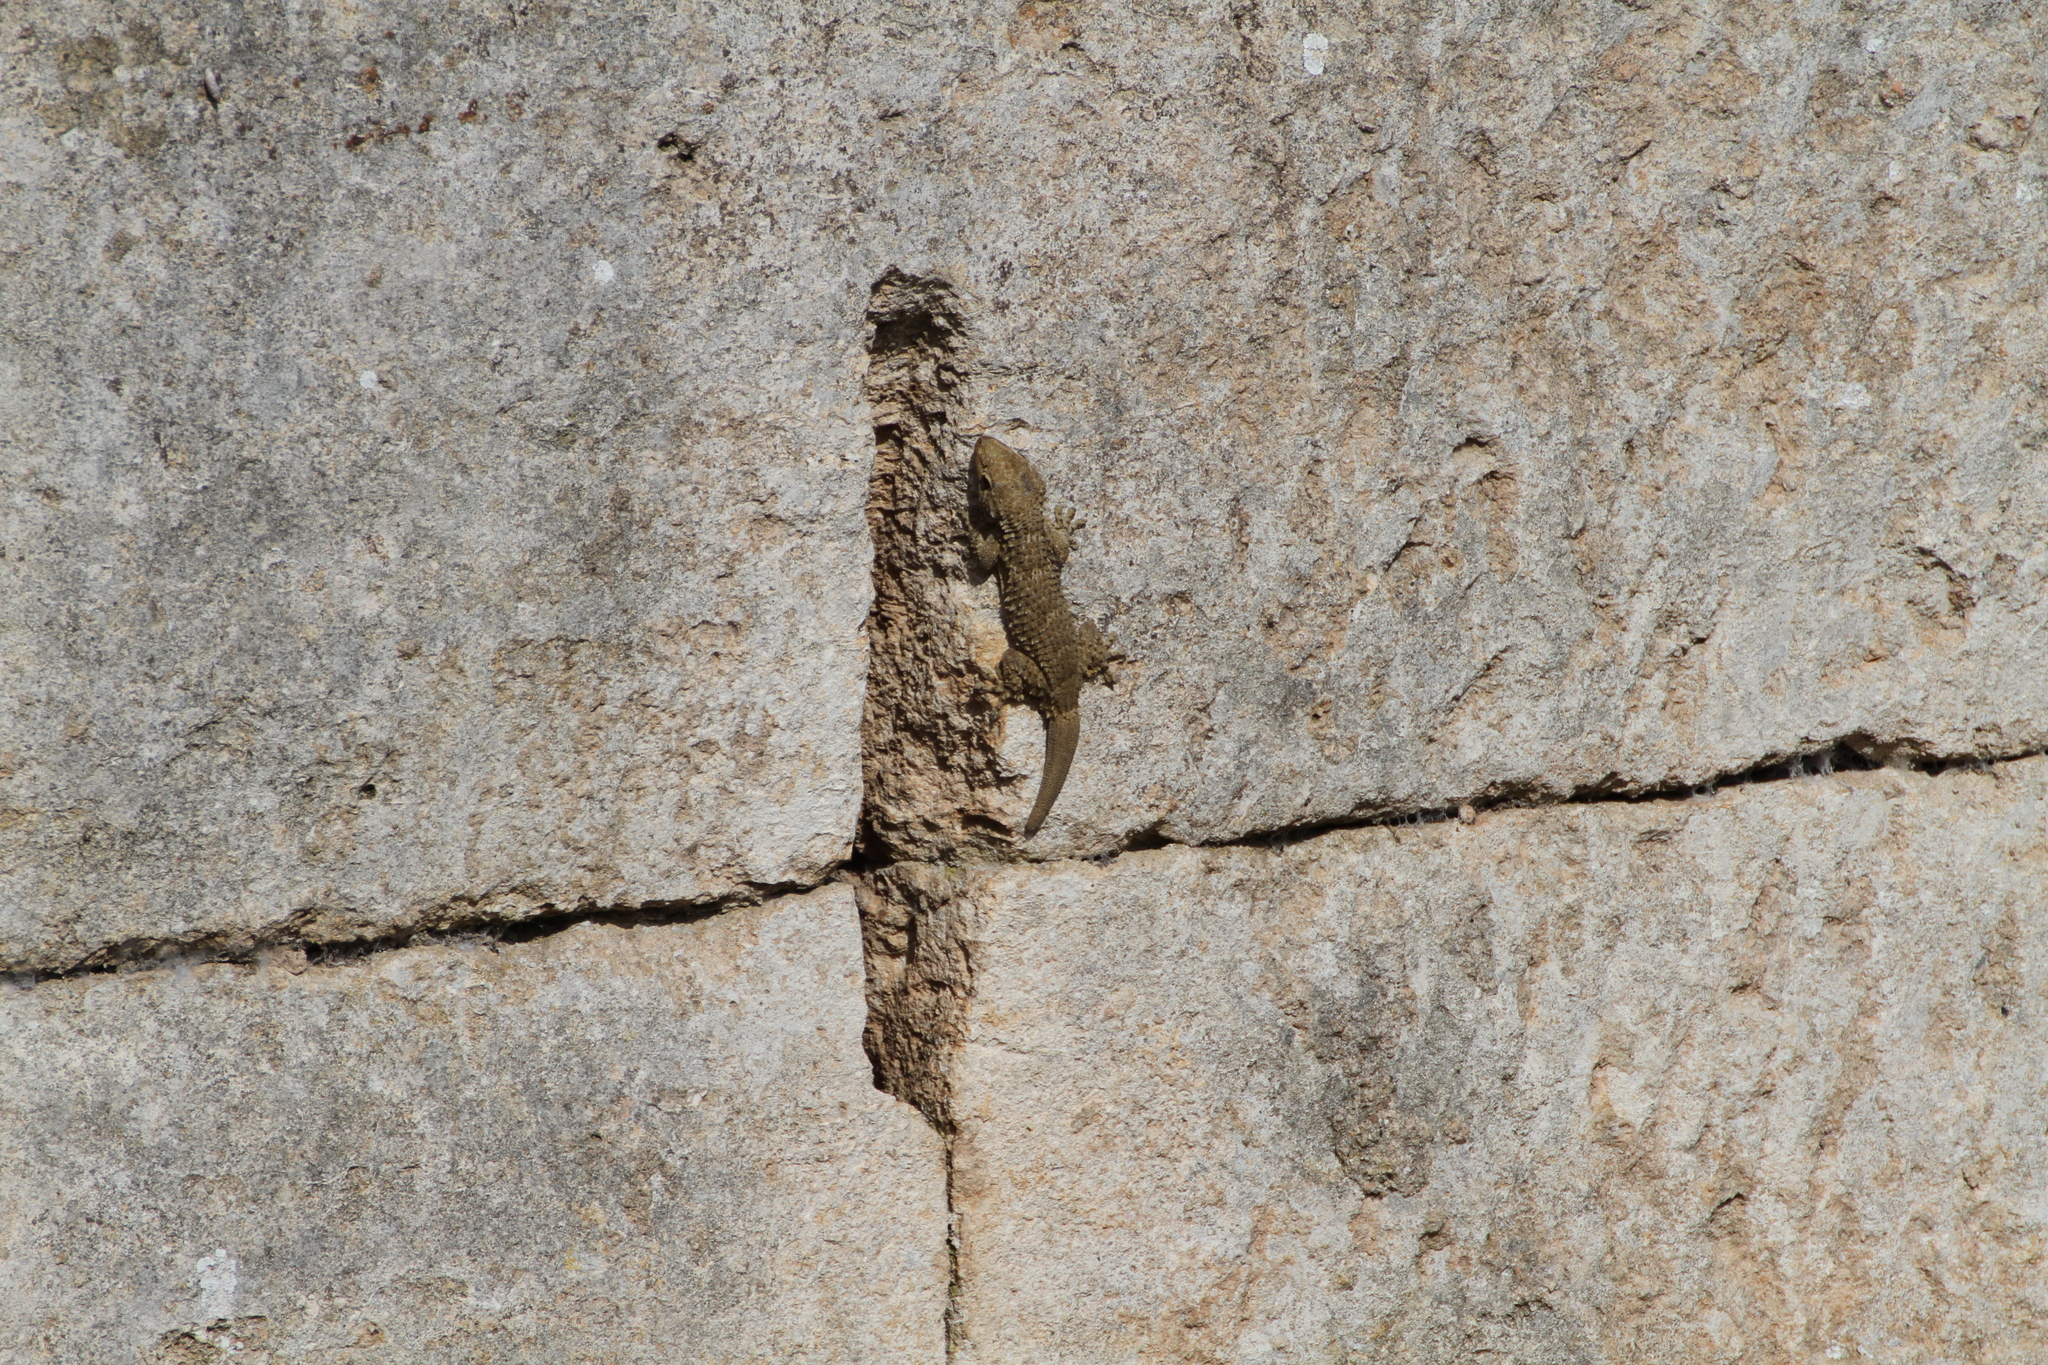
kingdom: Animalia
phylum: Chordata
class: Squamata
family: Phyllodactylidae
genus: Tarentola
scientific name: Tarentola mauritanica
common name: Moorish gecko
